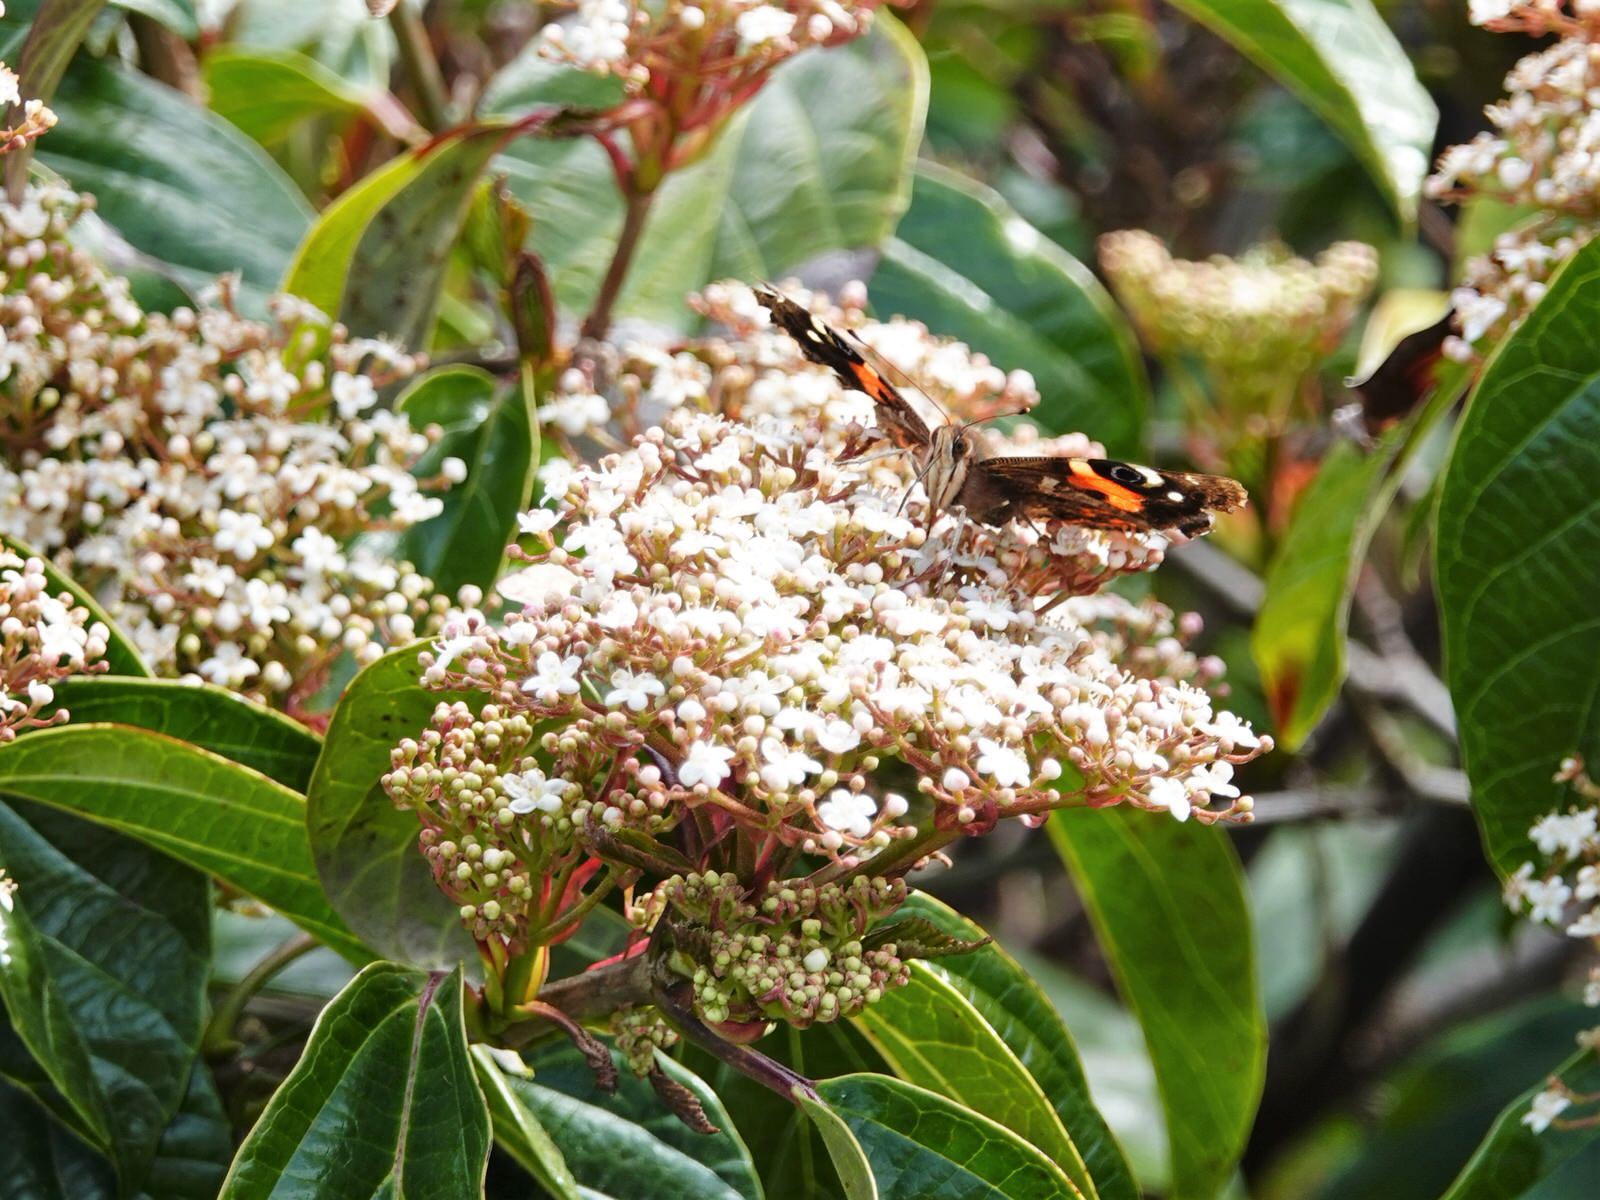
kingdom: Animalia
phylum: Arthropoda
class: Insecta
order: Lepidoptera
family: Nymphalidae
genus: Vanessa
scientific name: Vanessa gonerilla
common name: New zealand red admiral
